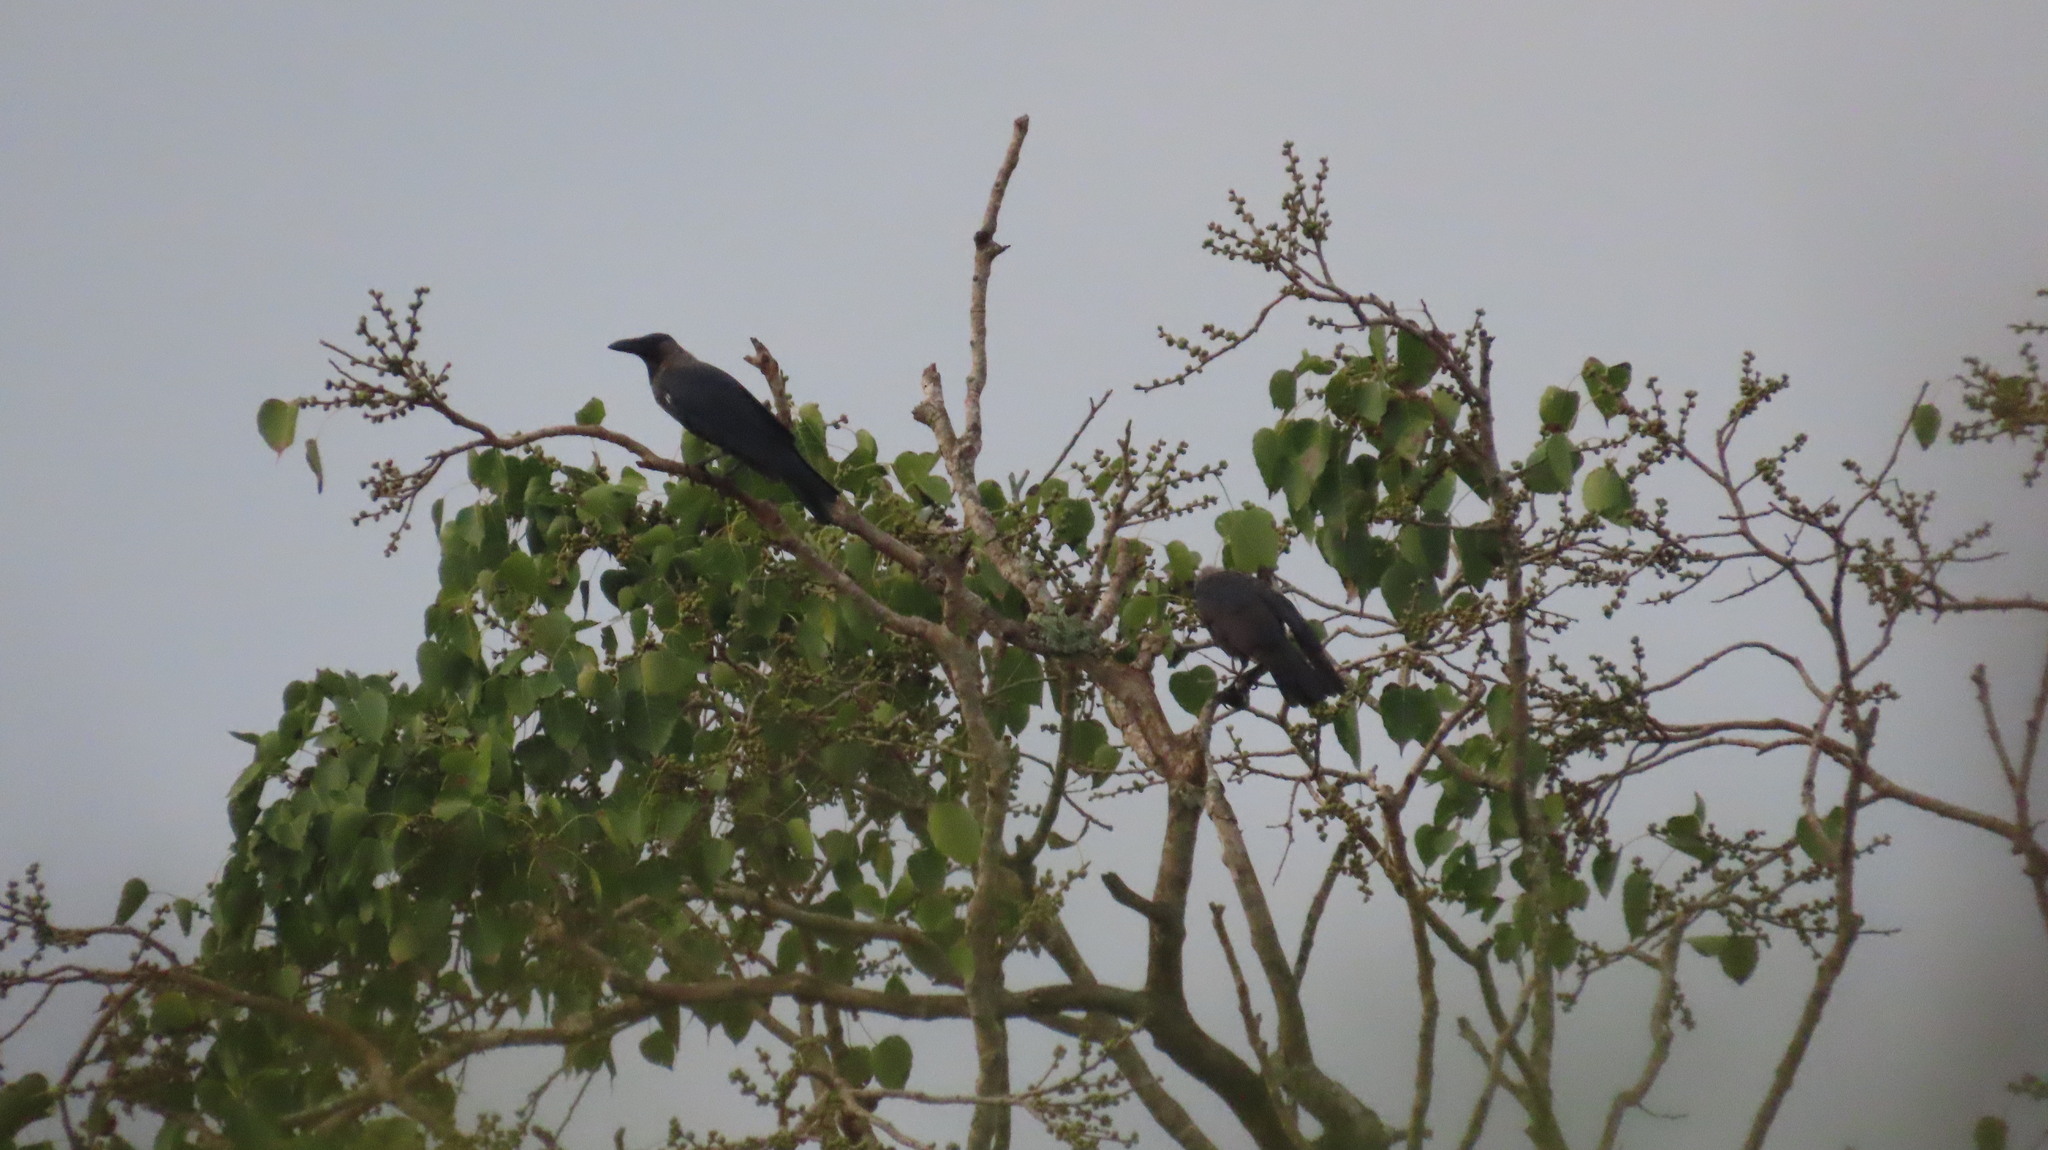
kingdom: Animalia
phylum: Chordata
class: Aves
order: Passeriformes
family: Corvidae
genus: Corvus
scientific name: Corvus splendens
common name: House crow
